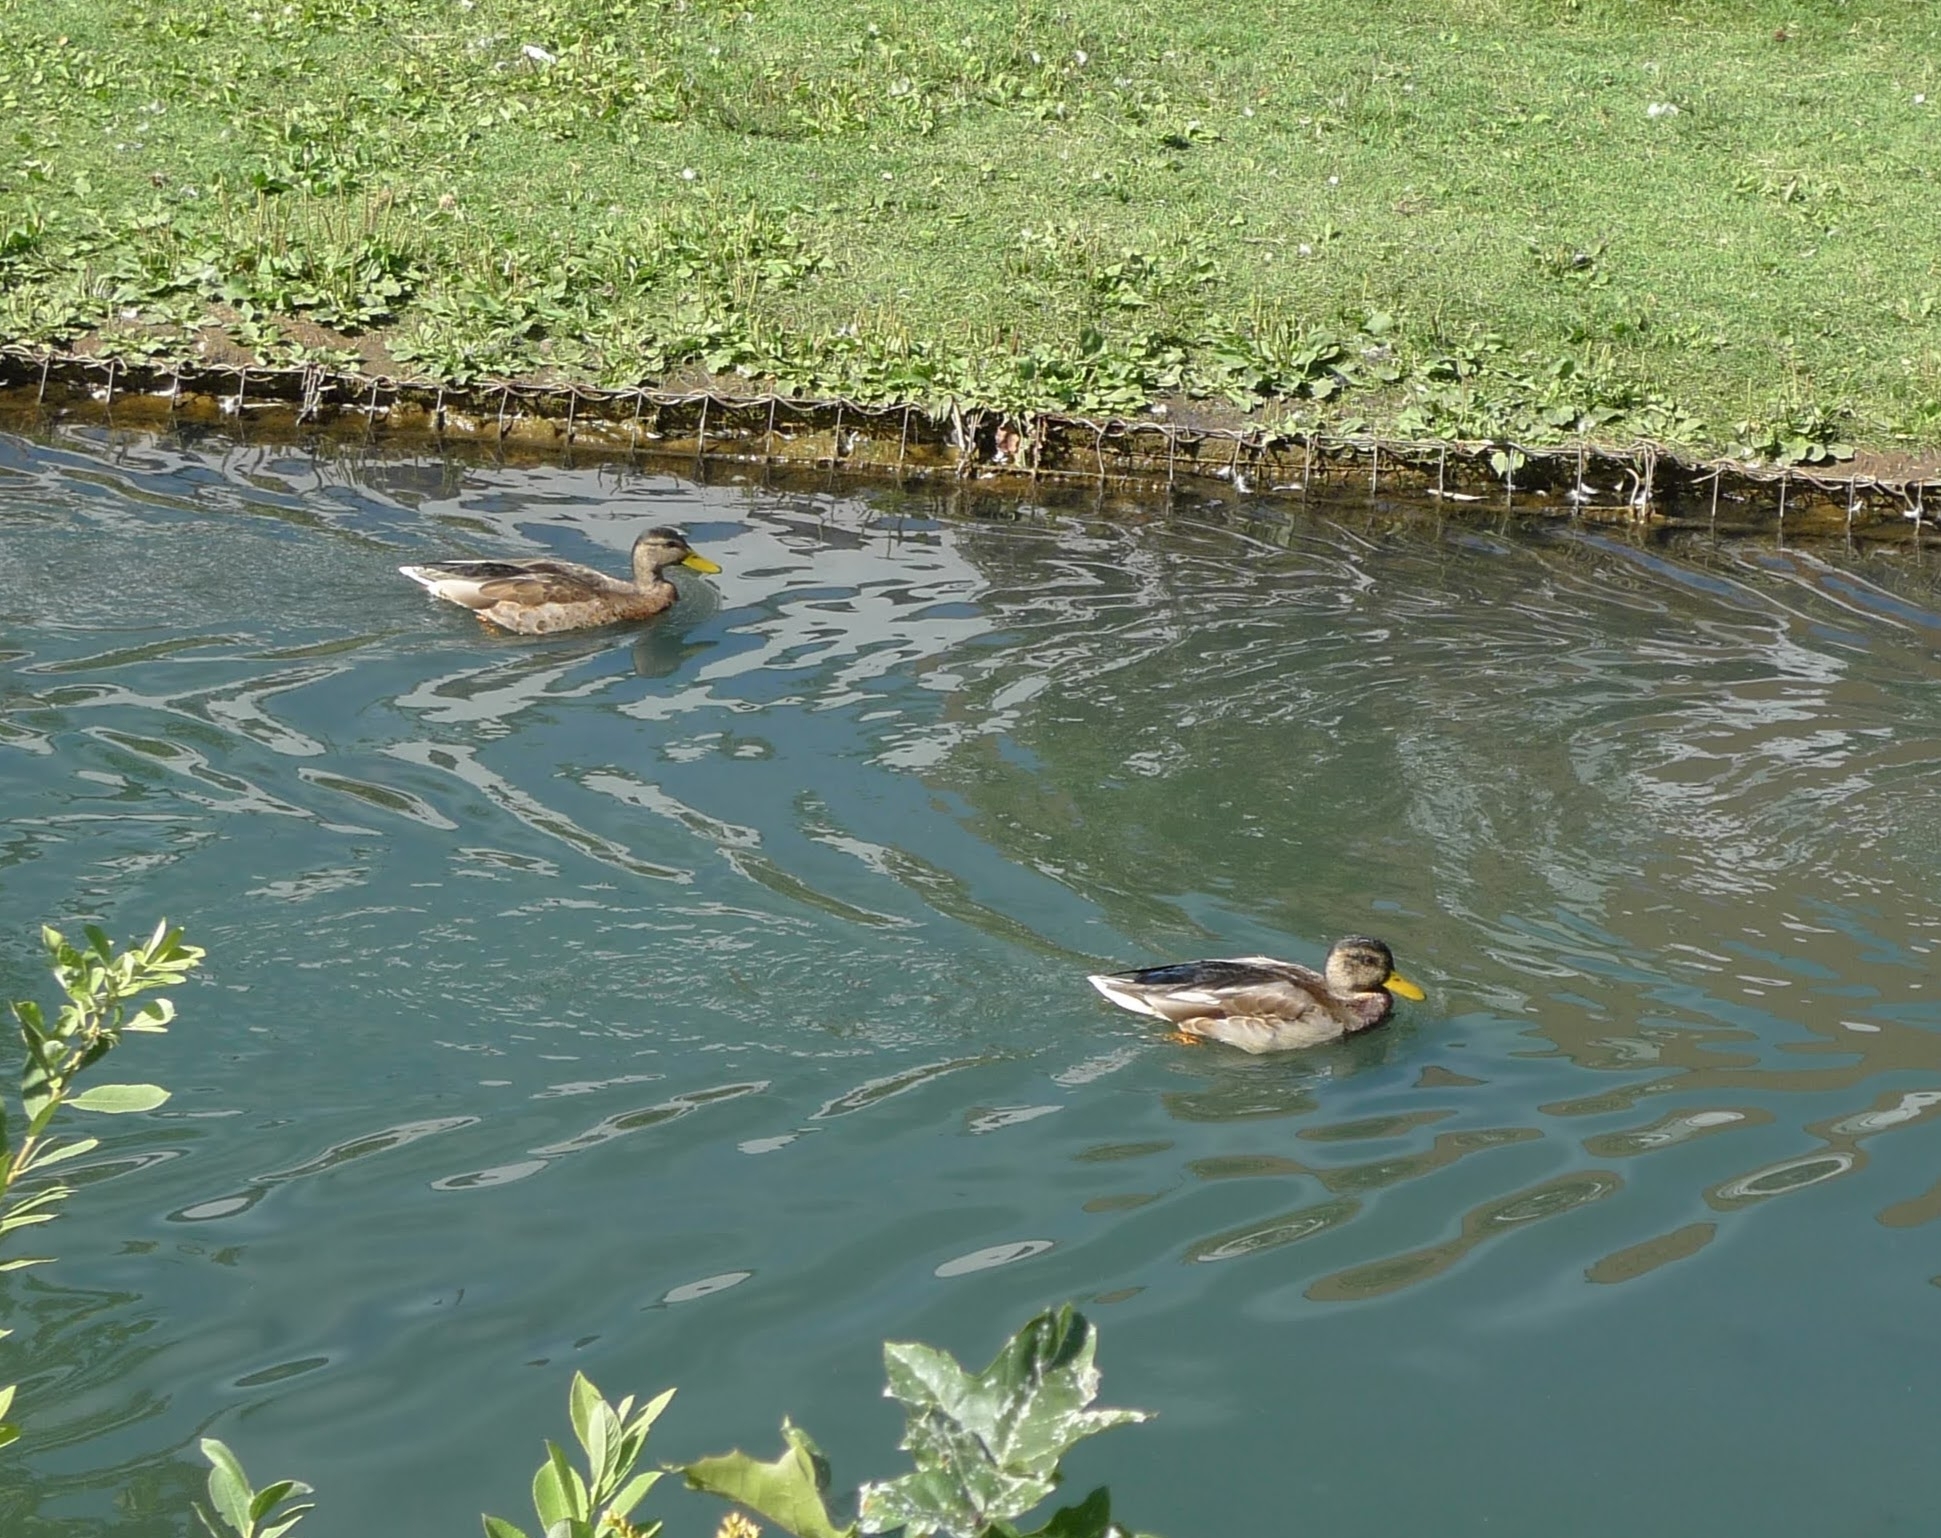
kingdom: Animalia
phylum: Chordata
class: Aves
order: Anseriformes
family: Anatidae
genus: Anas
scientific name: Anas platyrhynchos
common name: Mallard
